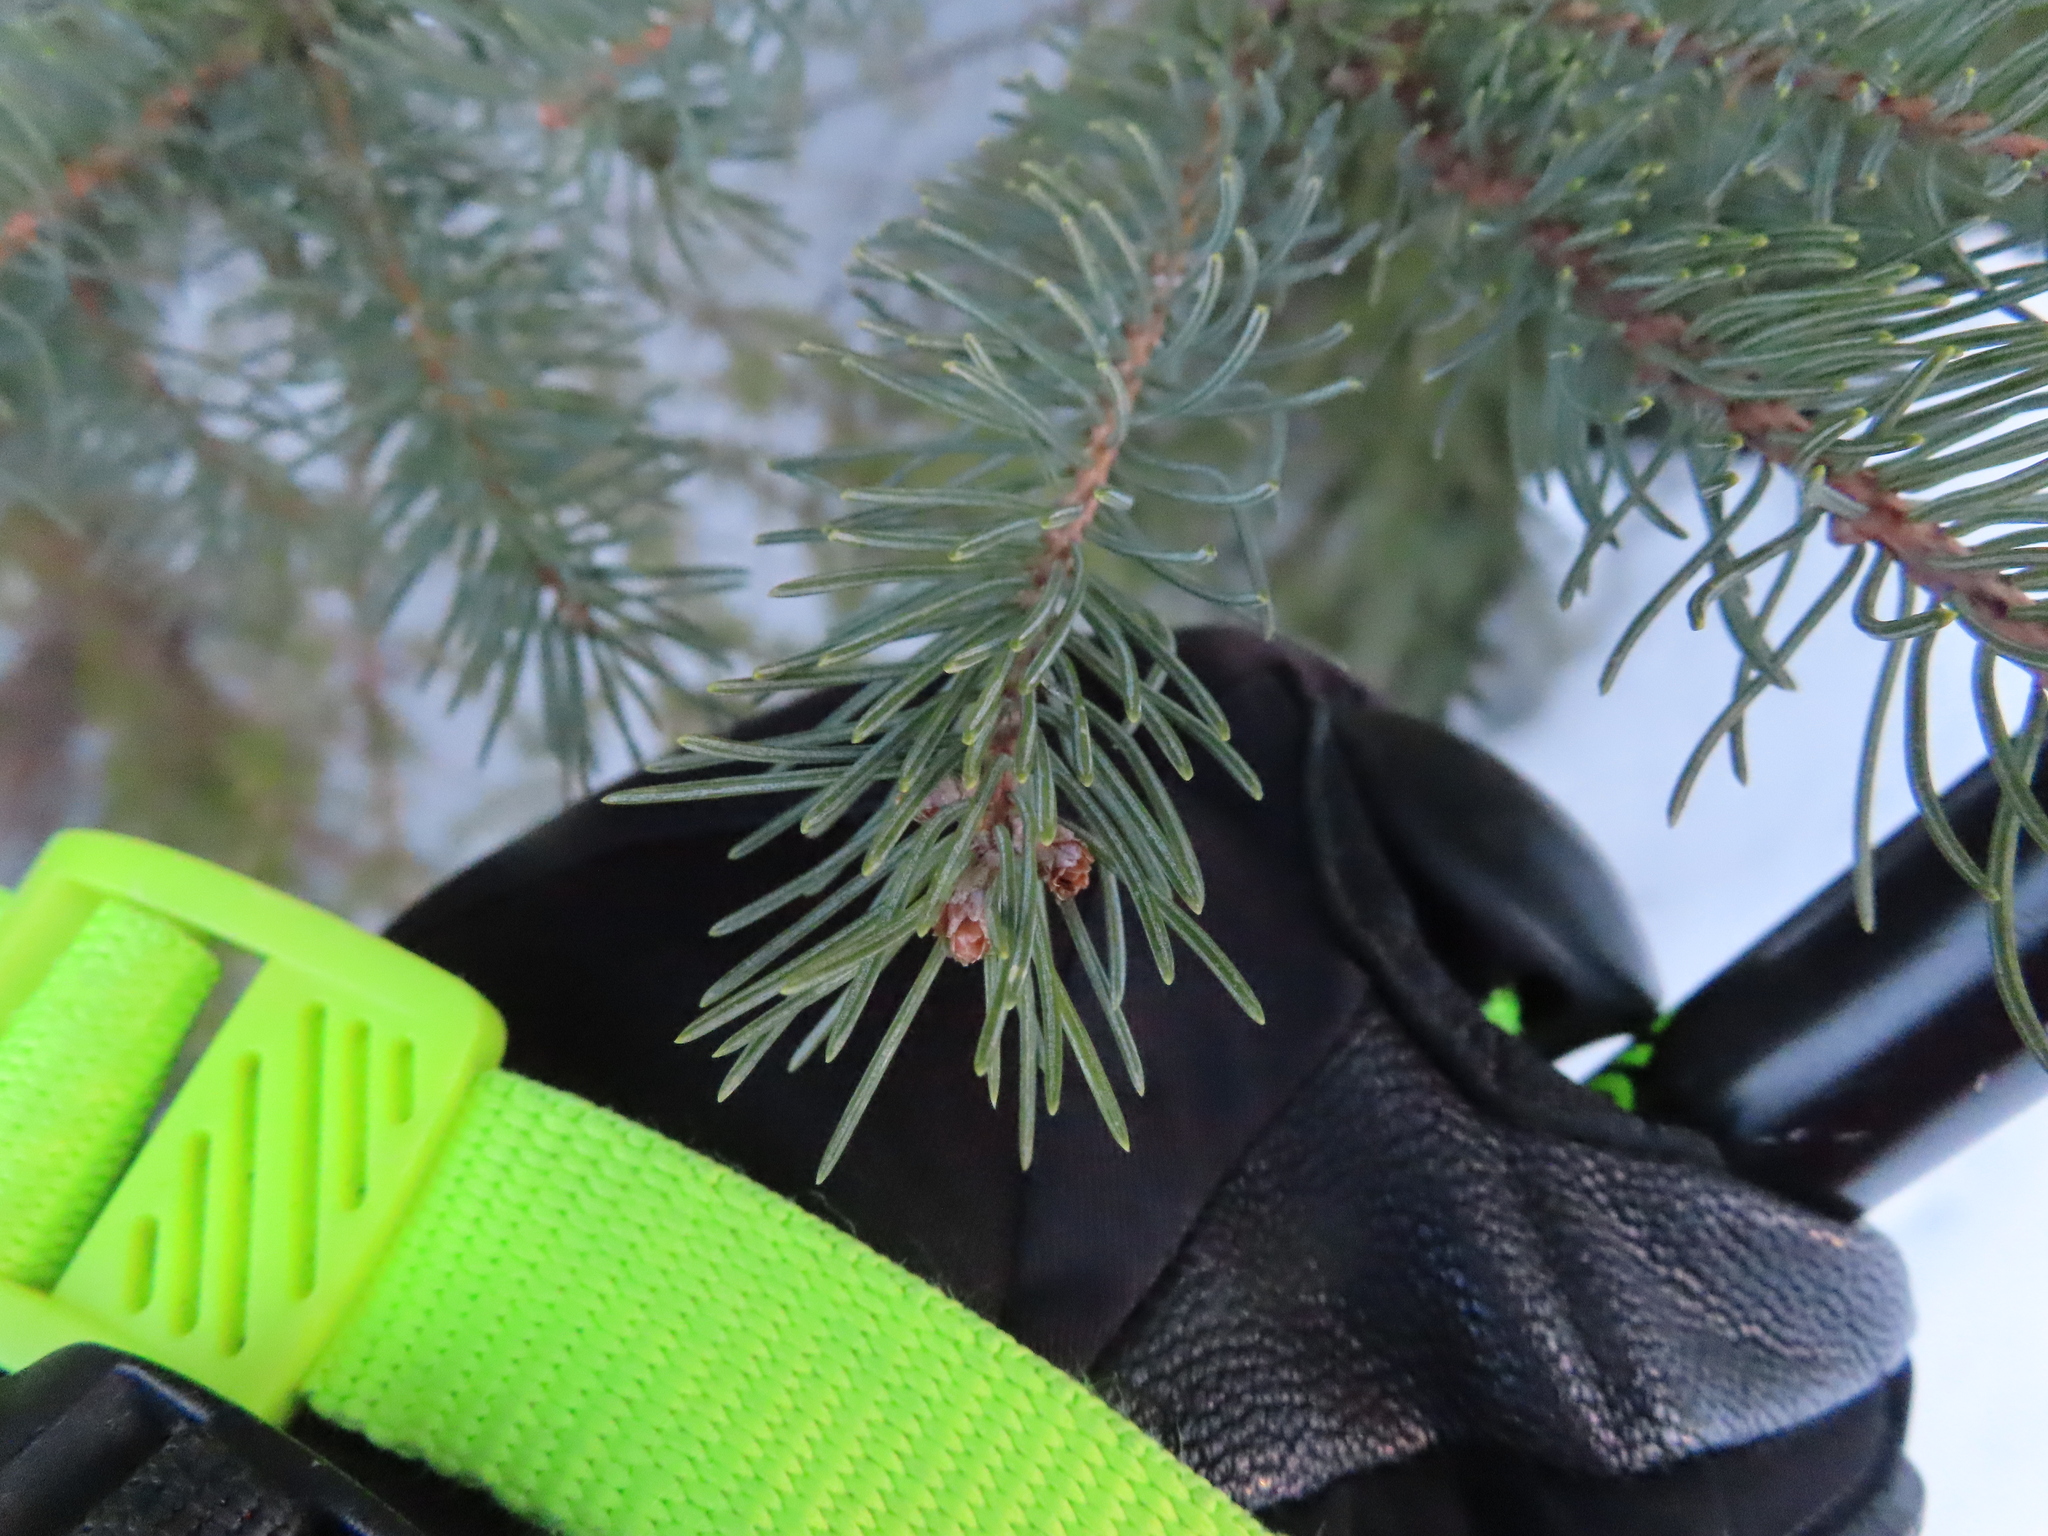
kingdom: Plantae
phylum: Tracheophyta
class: Pinopsida
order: Pinales
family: Pinaceae
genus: Picea
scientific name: Picea glauca
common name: White spruce
